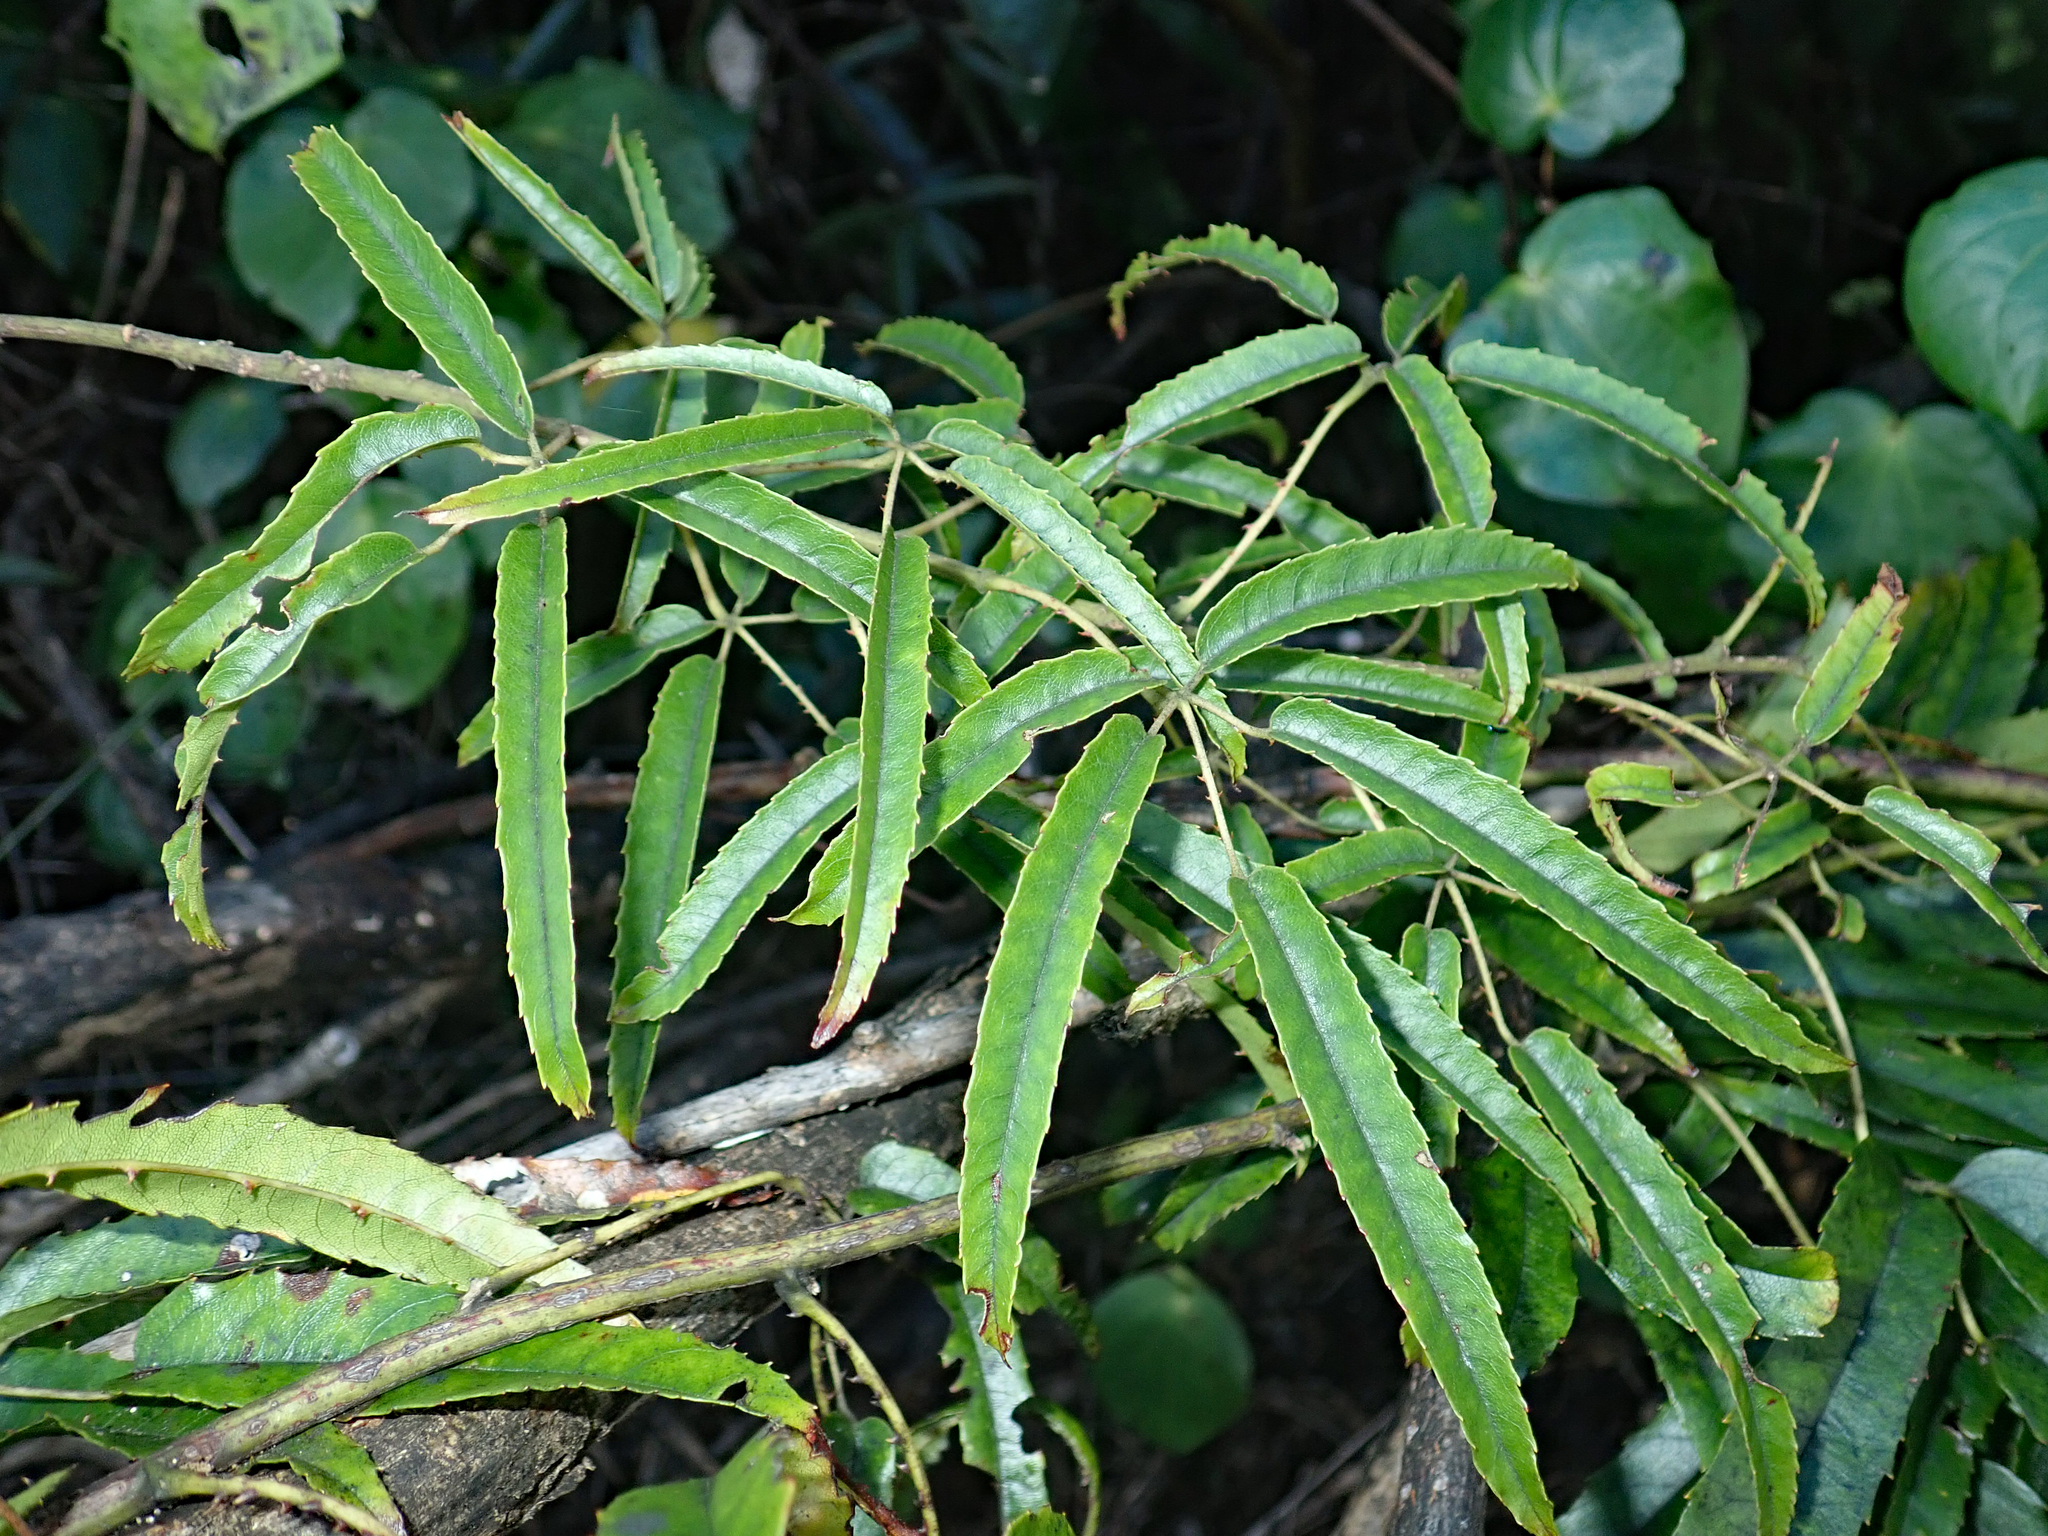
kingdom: Plantae
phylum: Tracheophyta
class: Magnoliopsida
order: Rosales
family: Rosaceae
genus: Rubus
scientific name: Rubus cissoides
